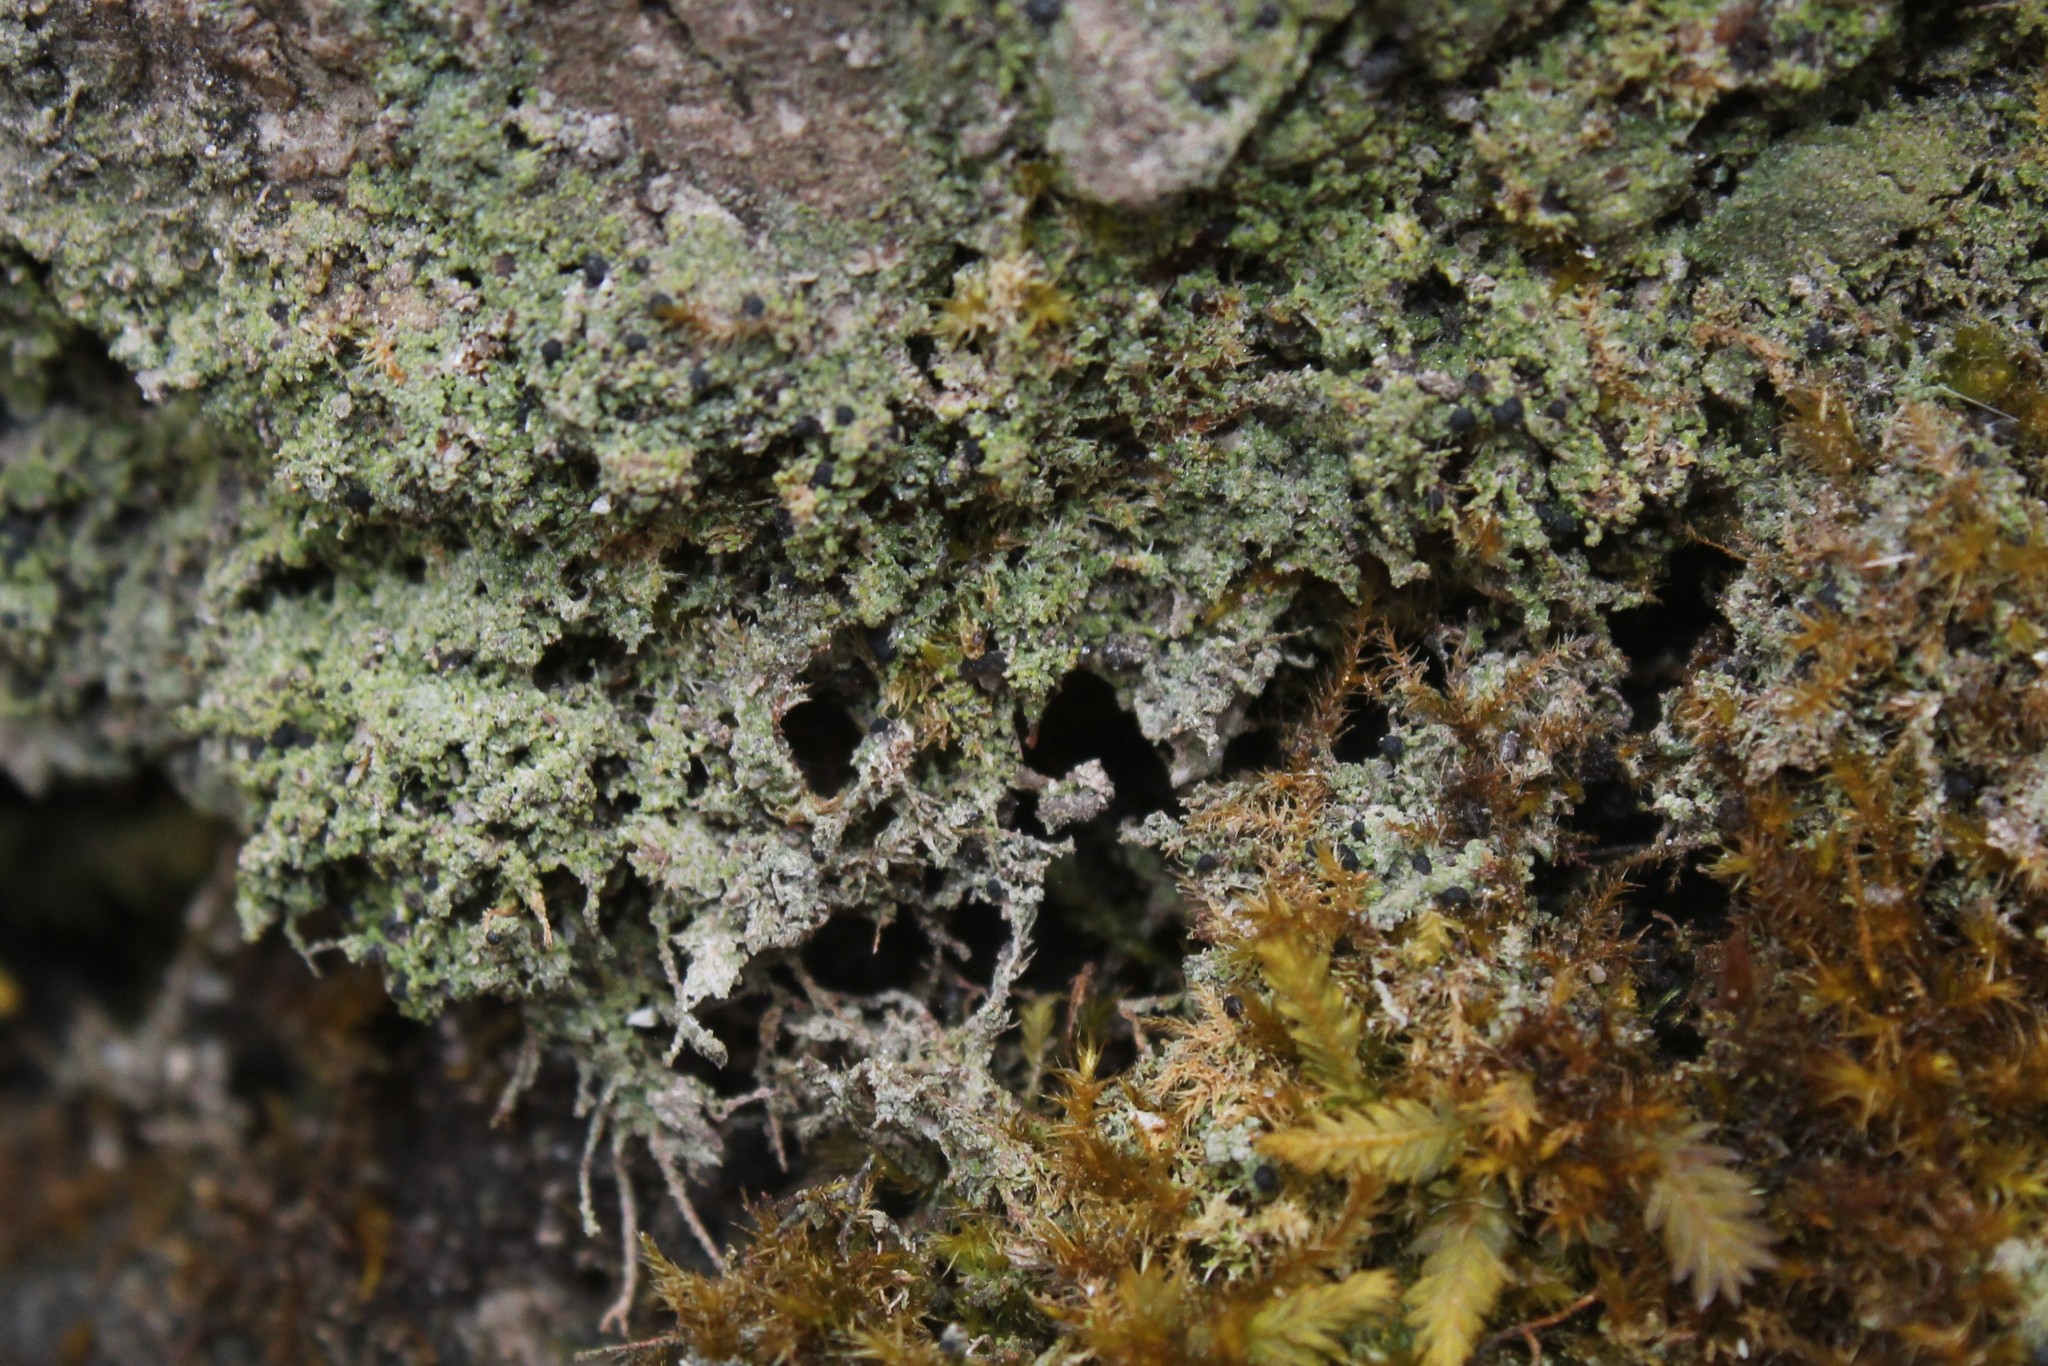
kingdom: Fungi
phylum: Ascomycota
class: Lecanoromycetes
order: Lecanorales
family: Ramalinaceae
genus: Bilimbia
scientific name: Bilimbia sabuletorum
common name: Six-celled moss dot lichen
